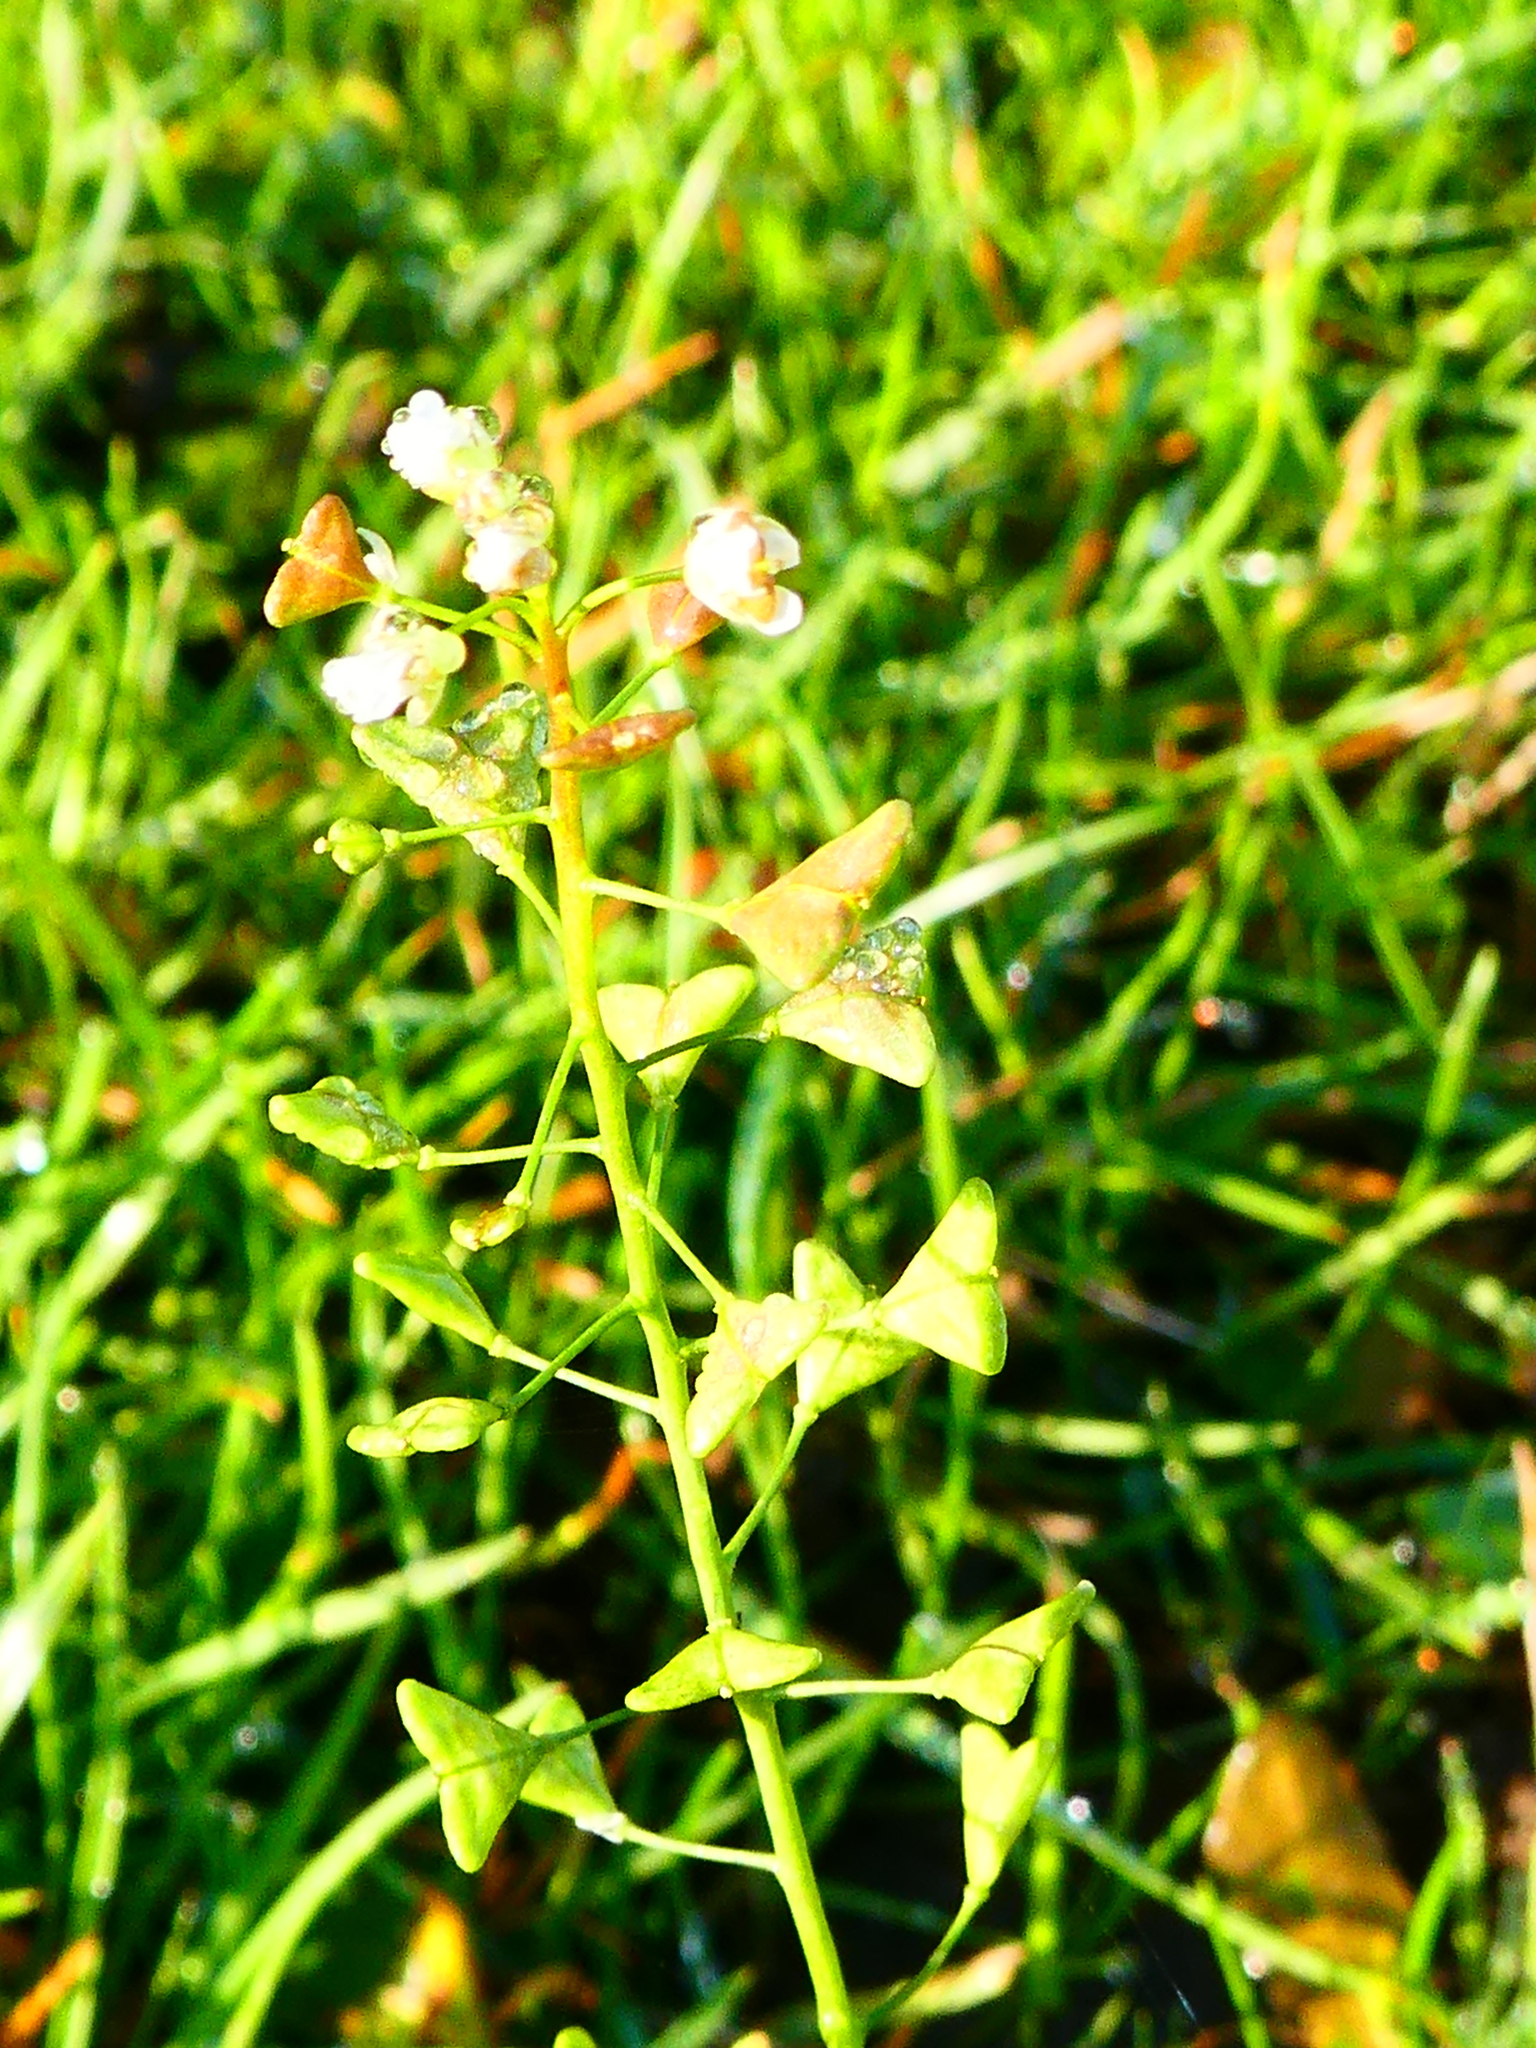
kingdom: Plantae
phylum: Tracheophyta
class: Magnoliopsida
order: Brassicales
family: Brassicaceae
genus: Capsella
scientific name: Capsella bursa-pastoris
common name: Shepherd's purse
